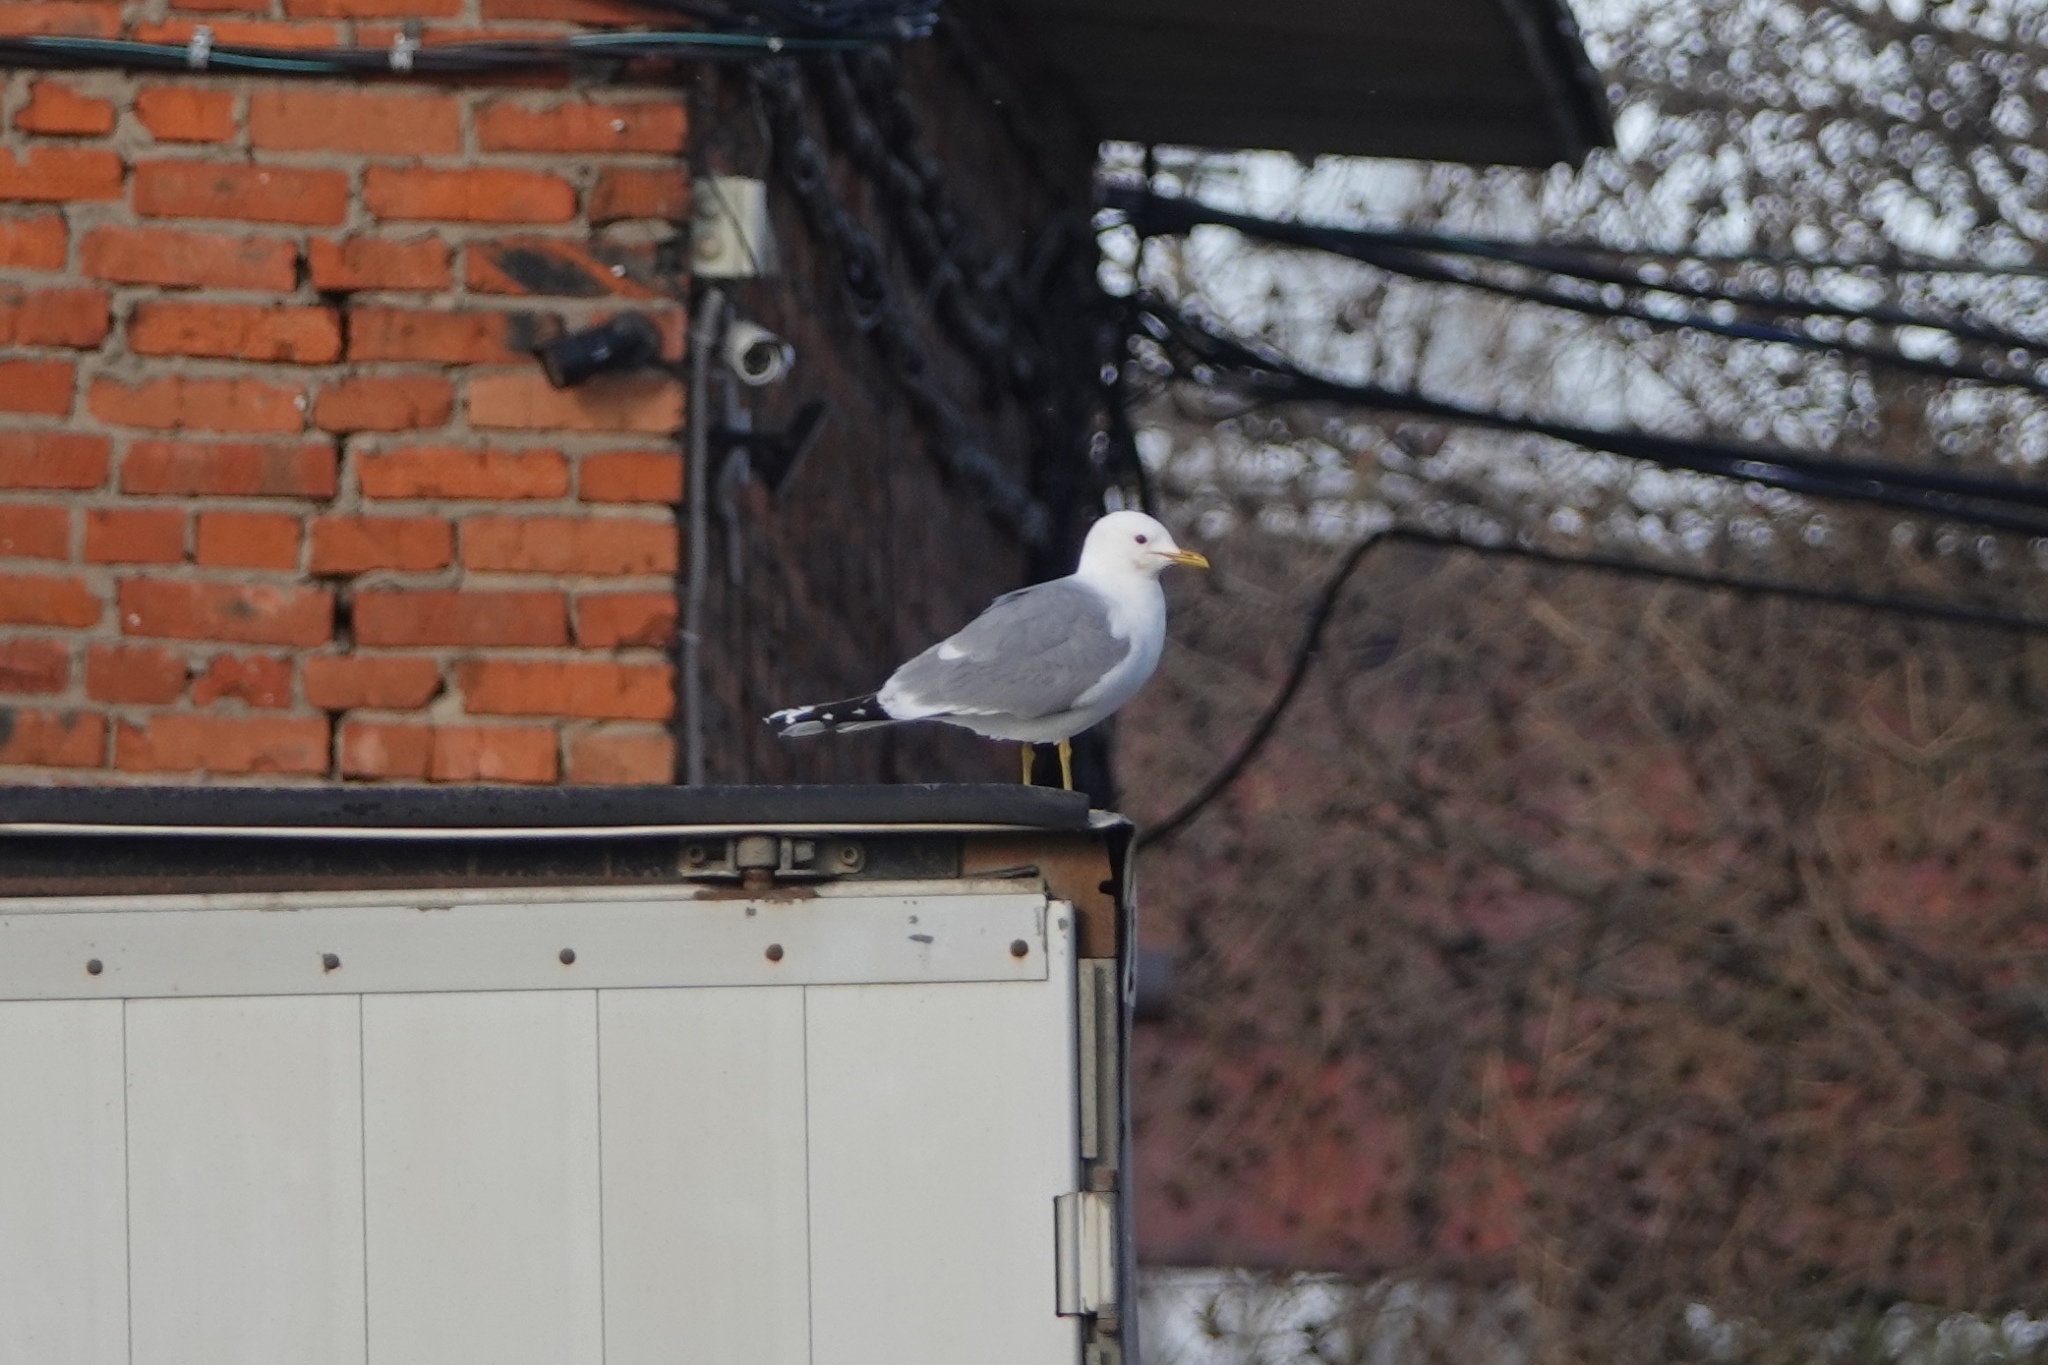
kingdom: Animalia
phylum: Chordata
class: Aves
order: Charadriiformes
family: Laridae
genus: Larus
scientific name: Larus canus
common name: Mew gull
